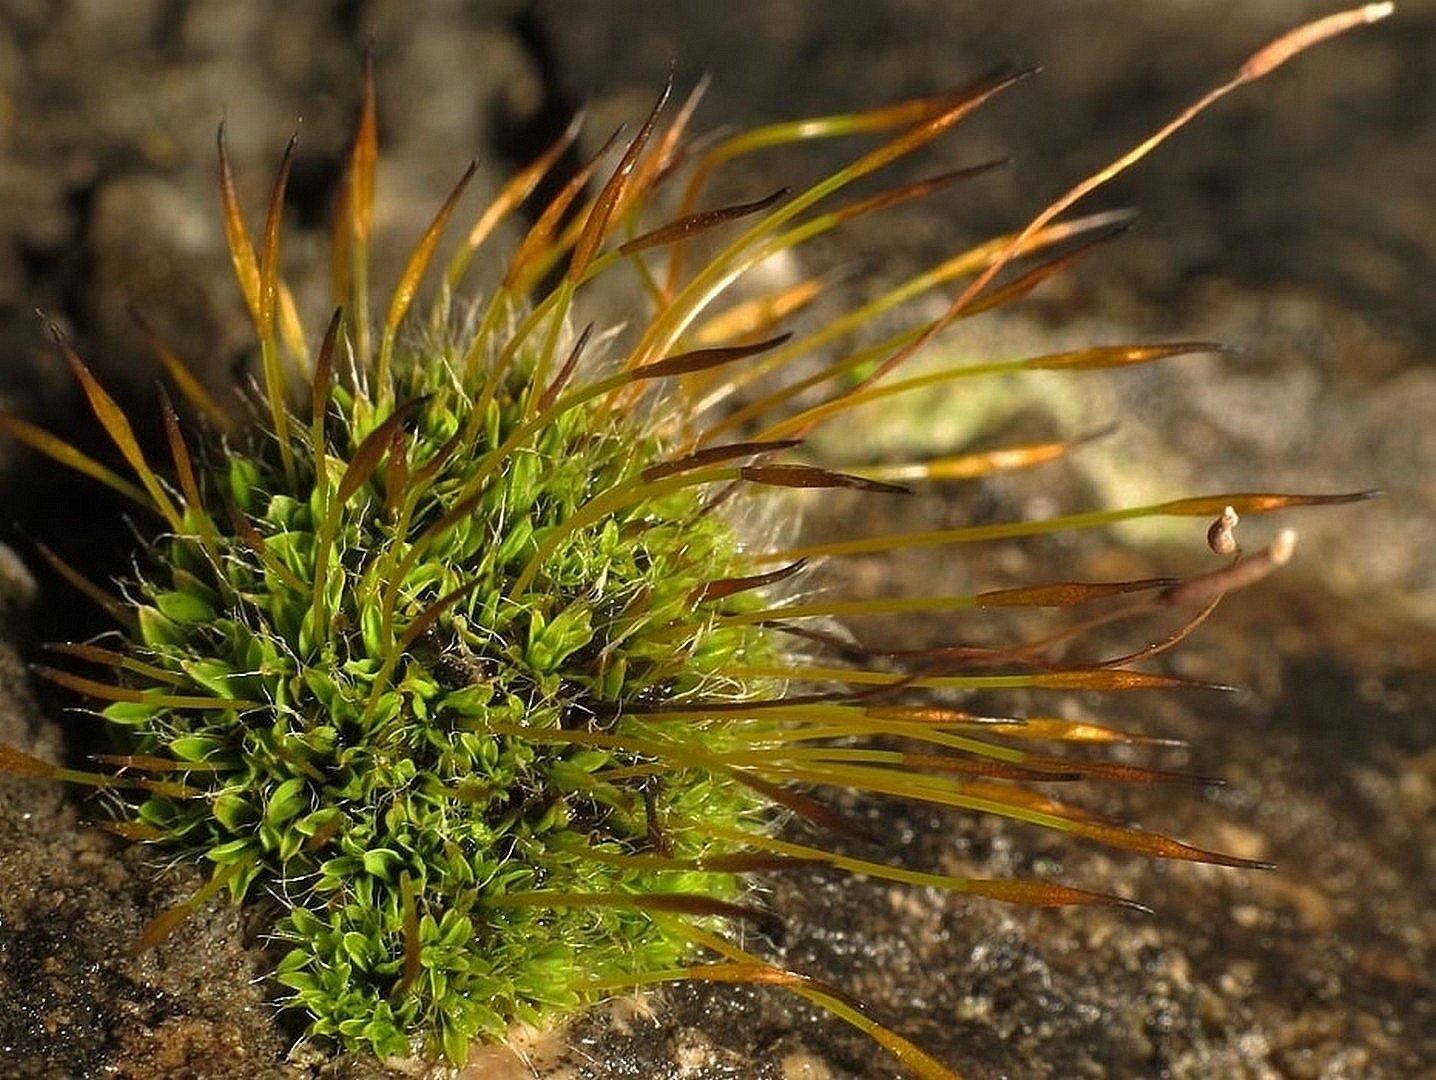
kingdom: Plantae
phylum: Bryophyta
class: Bryopsida
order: Pottiales
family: Pottiaceae
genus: Tortula
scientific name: Tortula muralis
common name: Wall screw-moss
